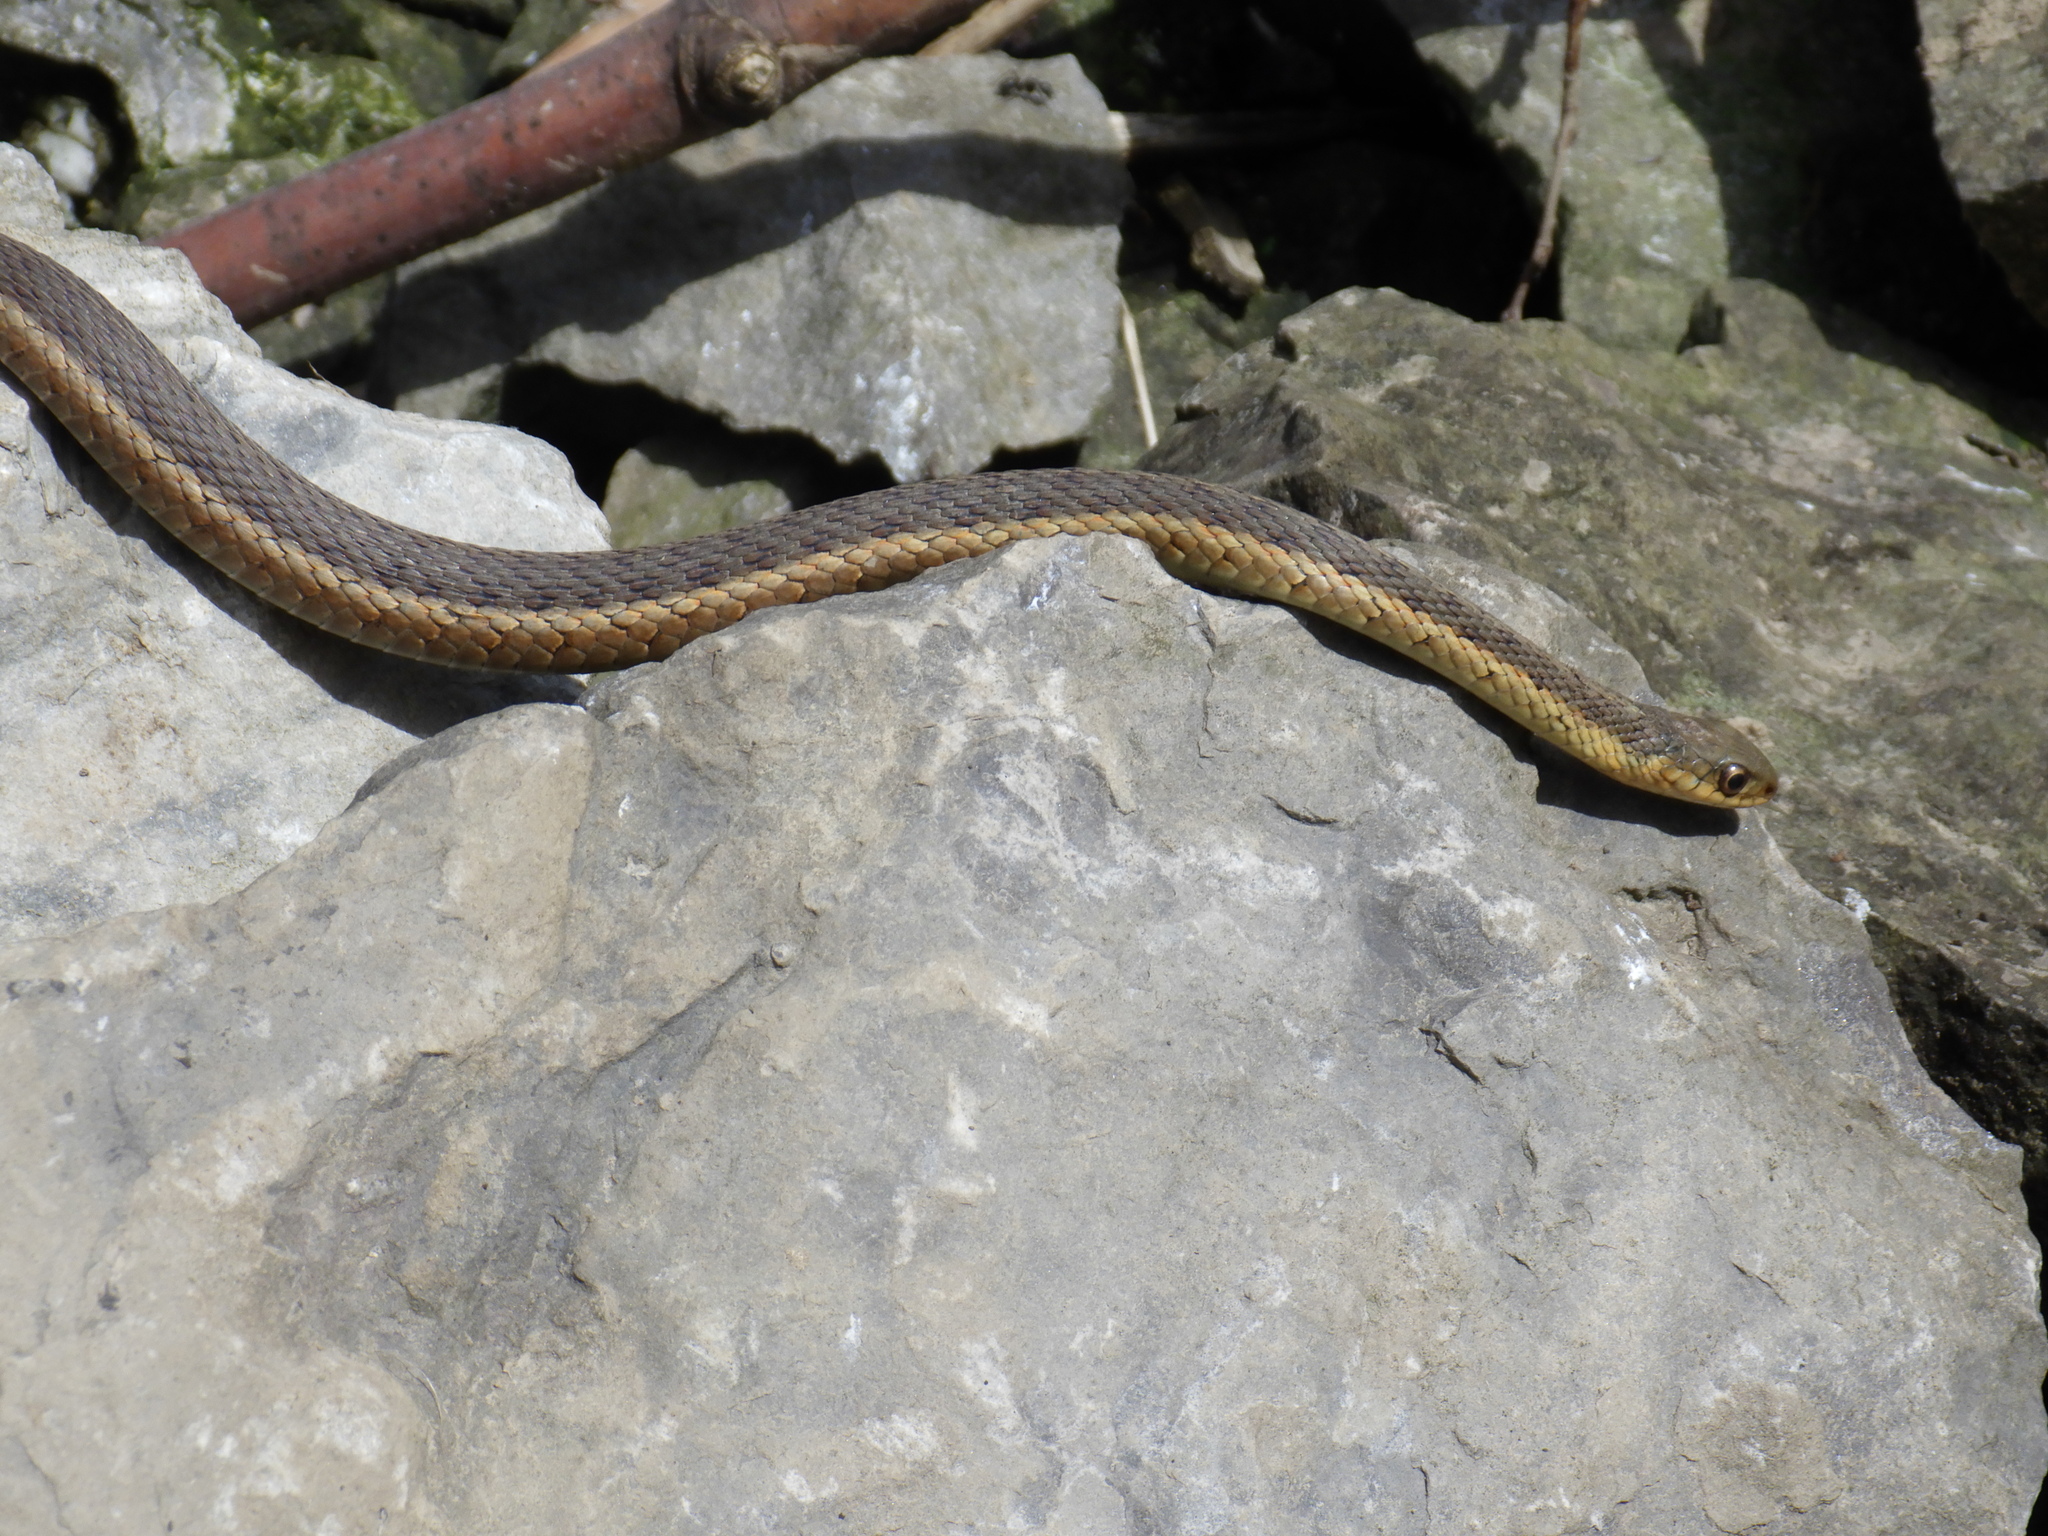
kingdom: Animalia
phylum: Chordata
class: Squamata
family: Colubridae
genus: Thamnophis
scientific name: Thamnophis sirtalis
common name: Common garter snake
